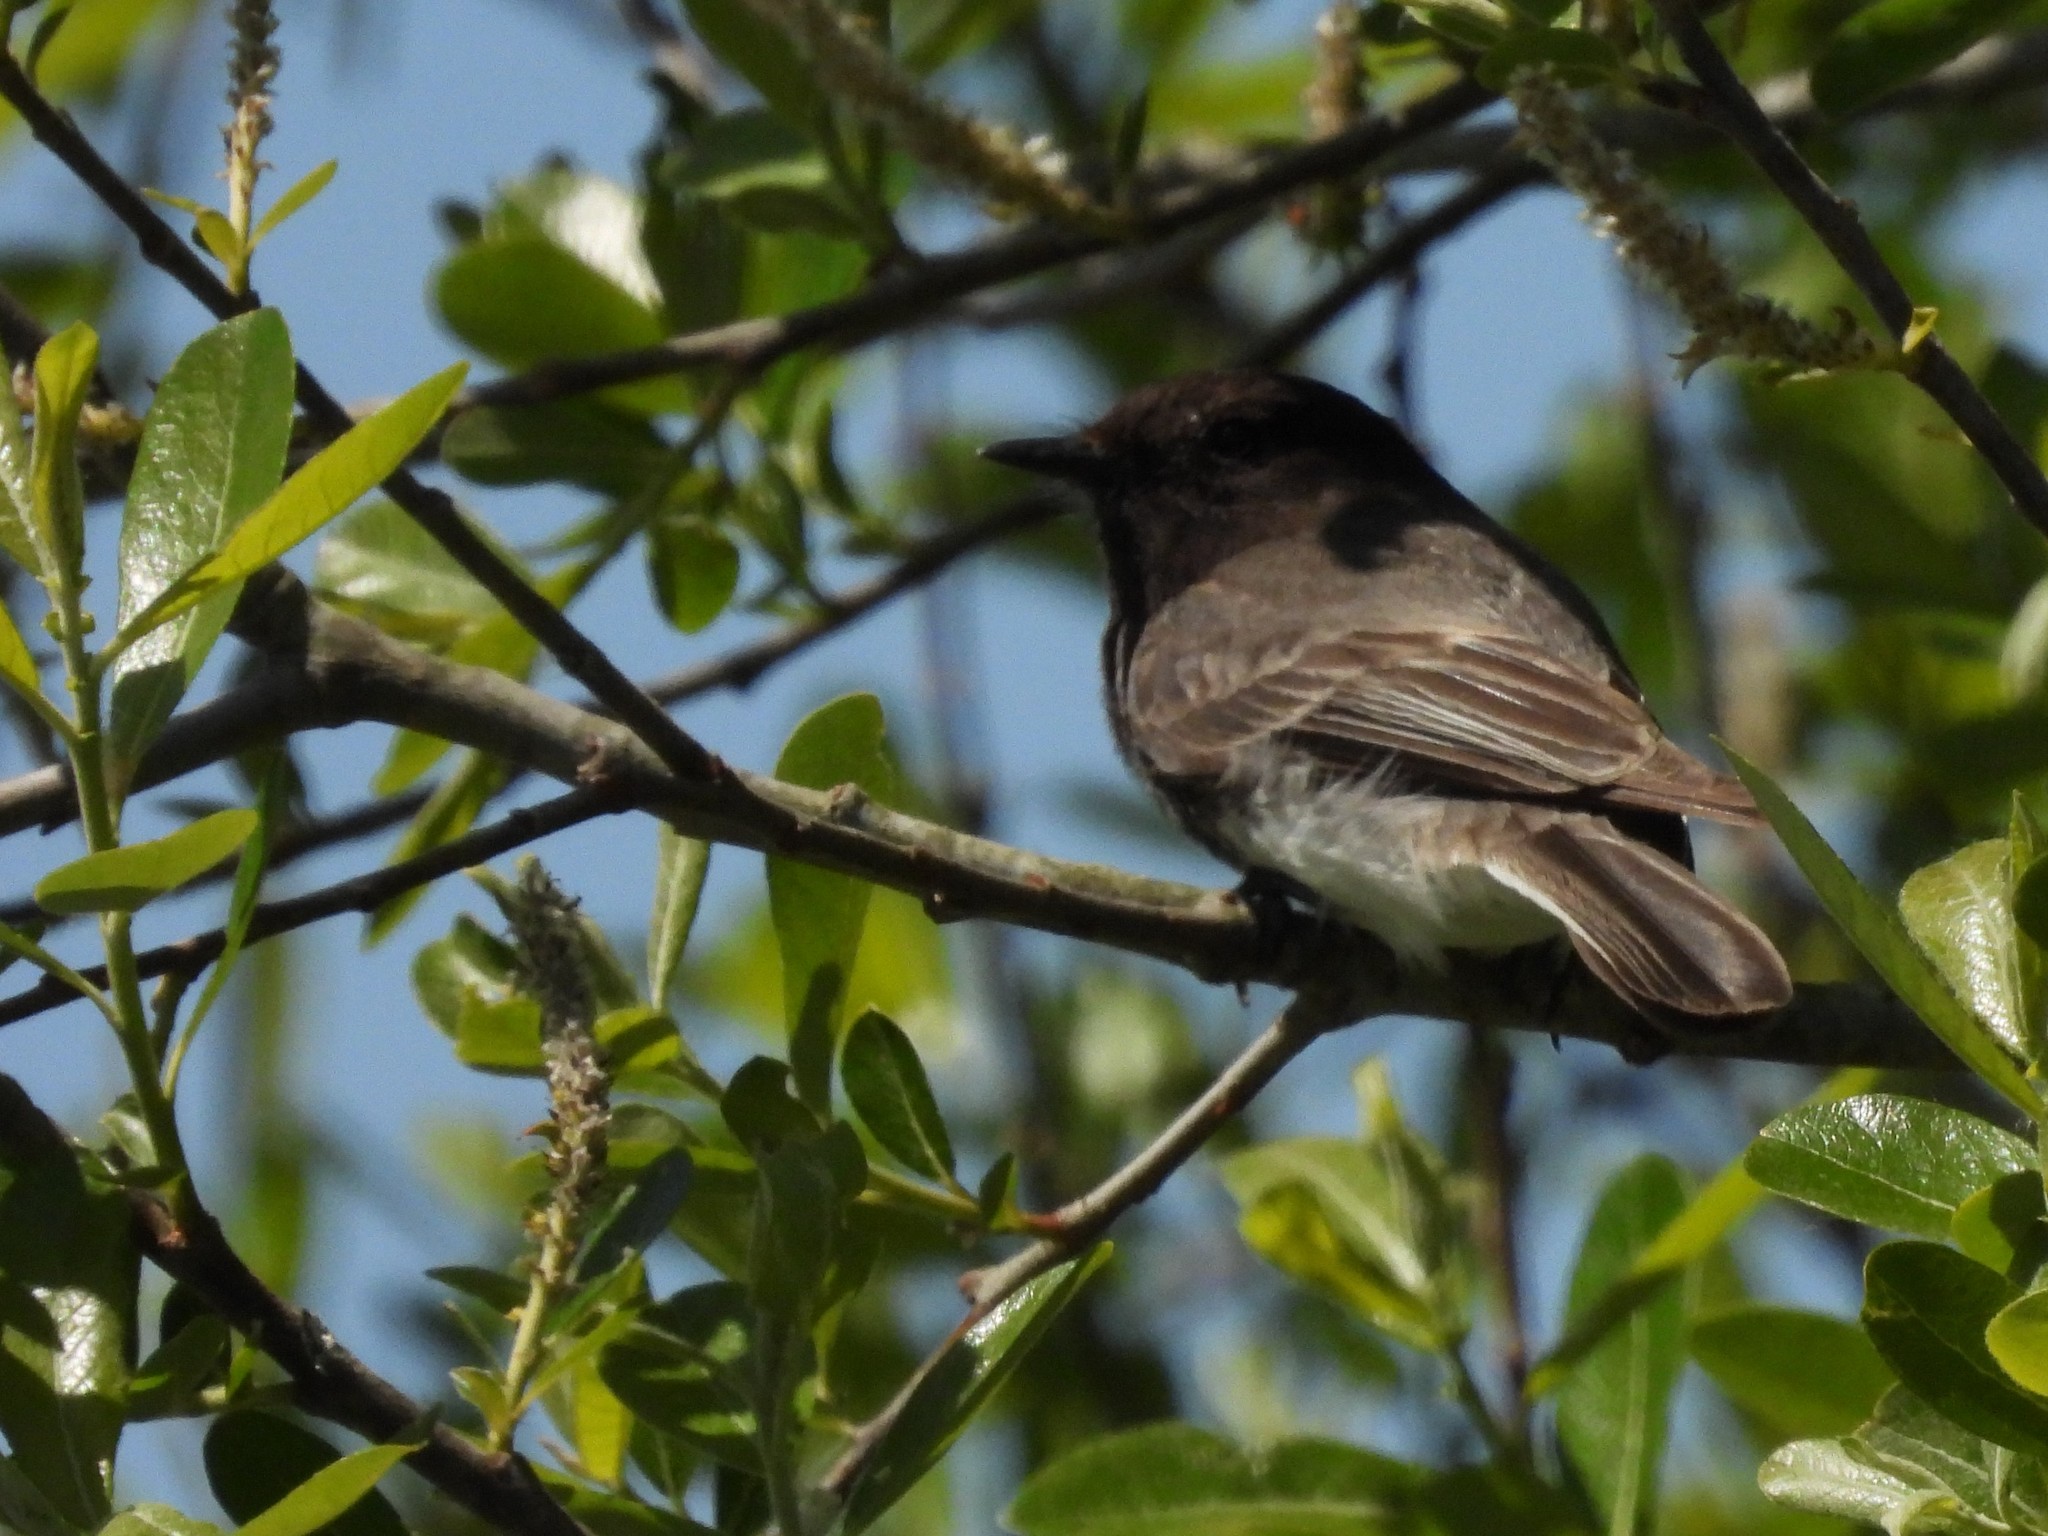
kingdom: Animalia
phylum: Chordata
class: Aves
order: Passeriformes
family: Tyrannidae
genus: Sayornis
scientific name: Sayornis nigricans
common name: Black phoebe
